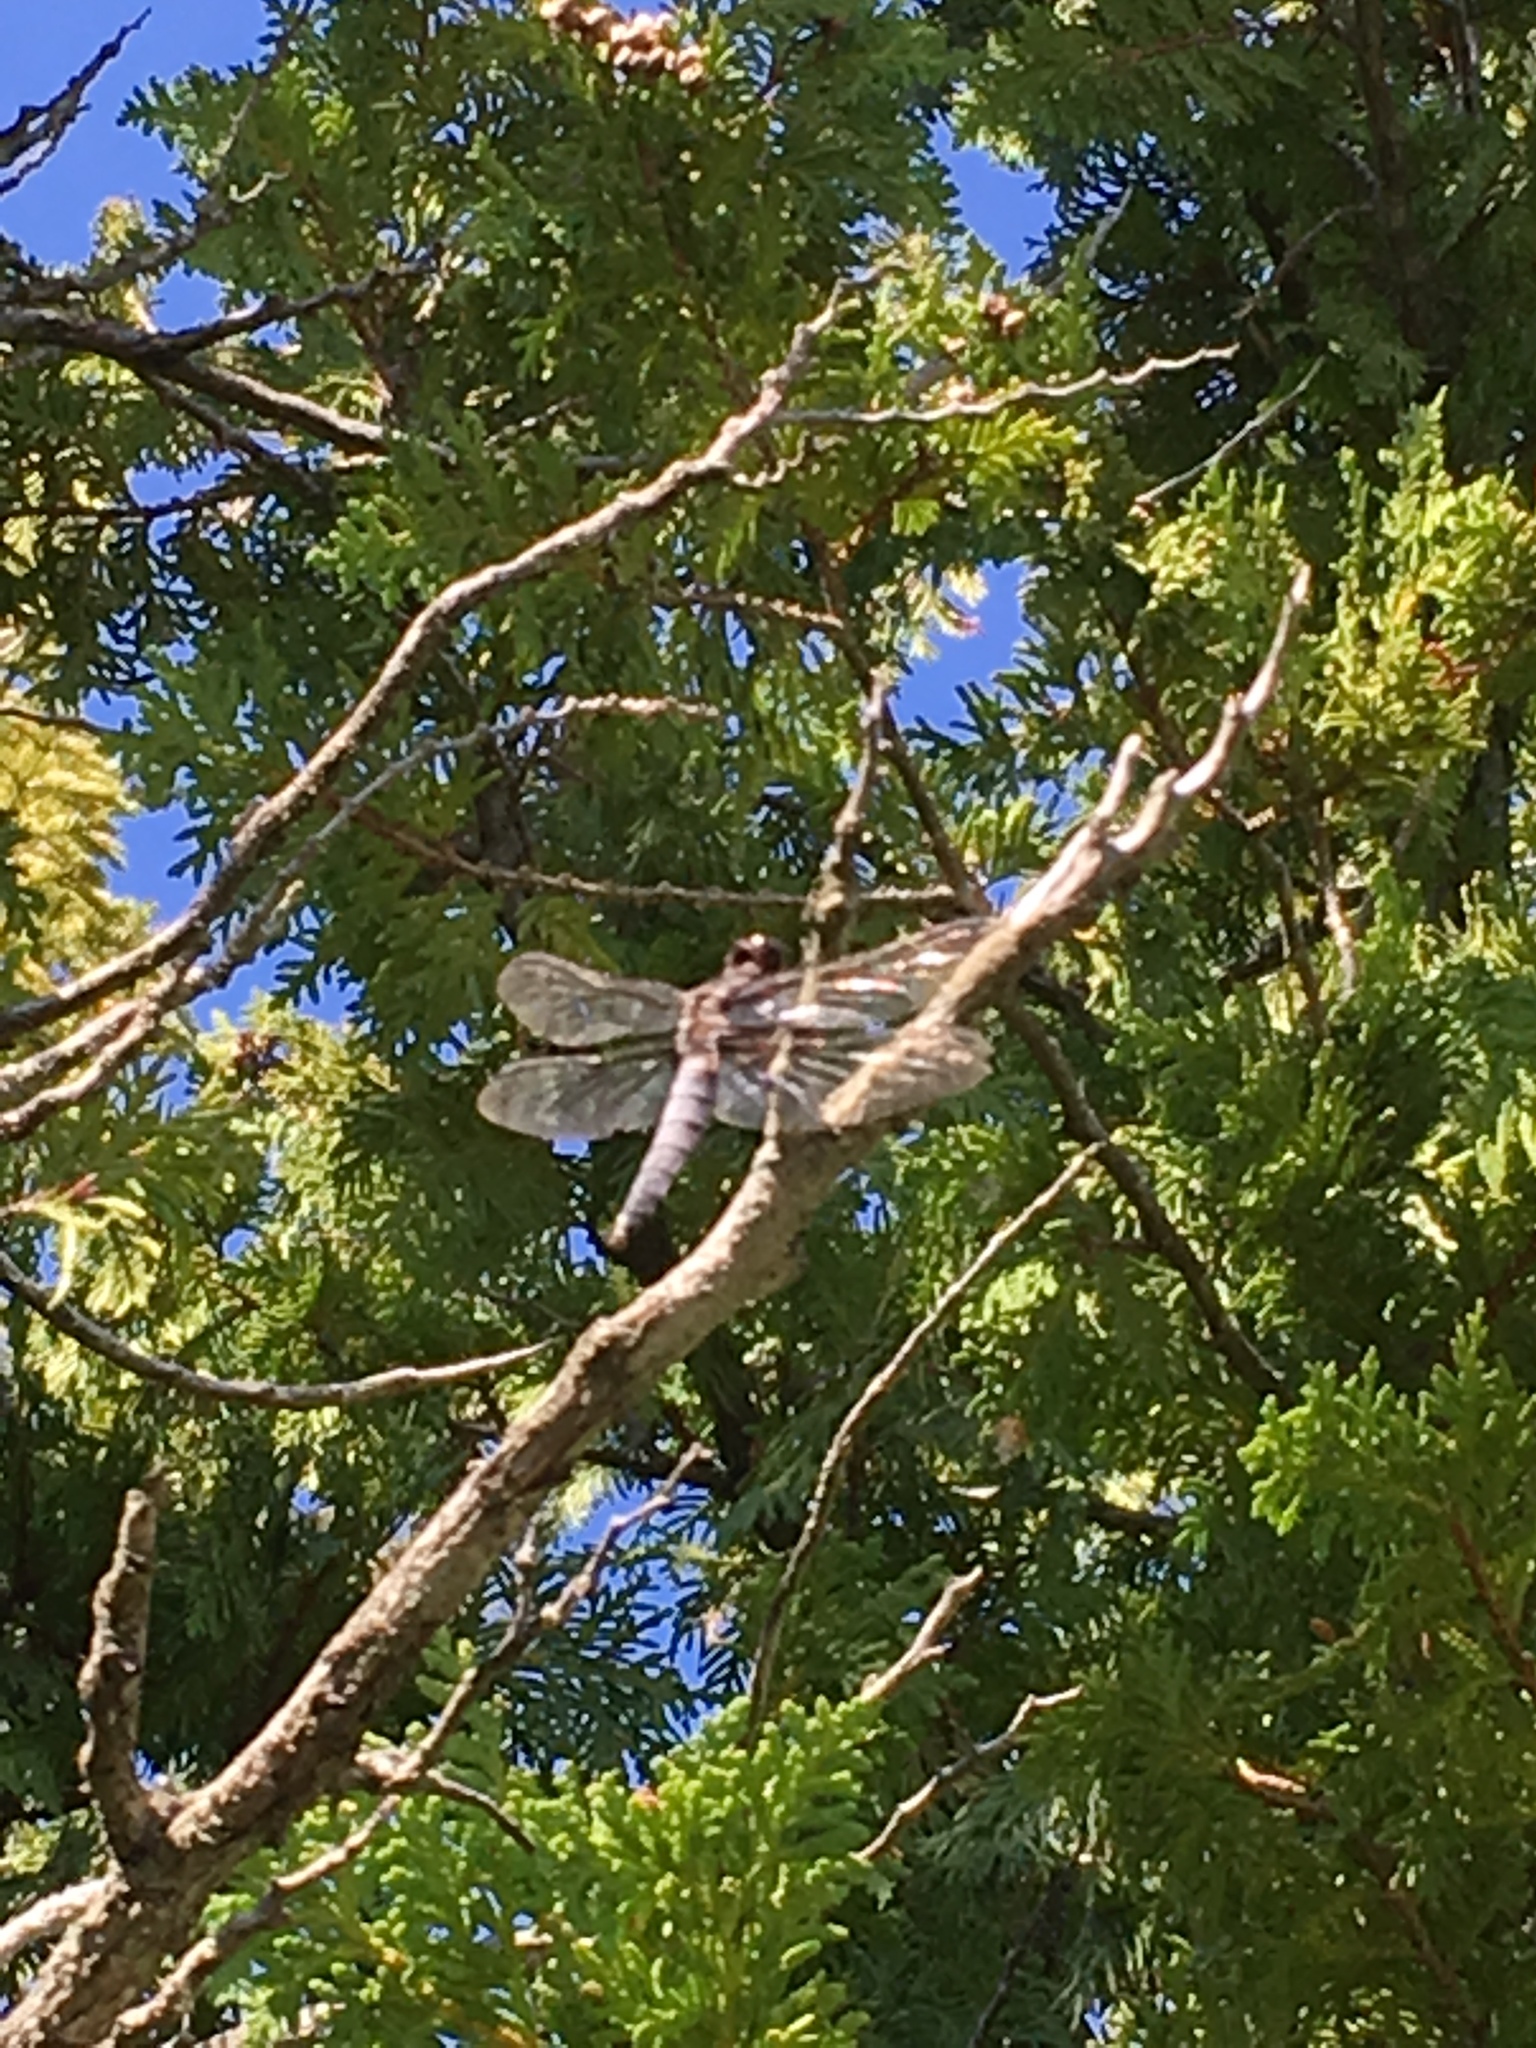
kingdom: Animalia
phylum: Arthropoda
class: Insecta
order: Odonata
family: Libellulidae
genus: Ladona
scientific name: Ladona julia
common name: Chalk-fronted corporal
